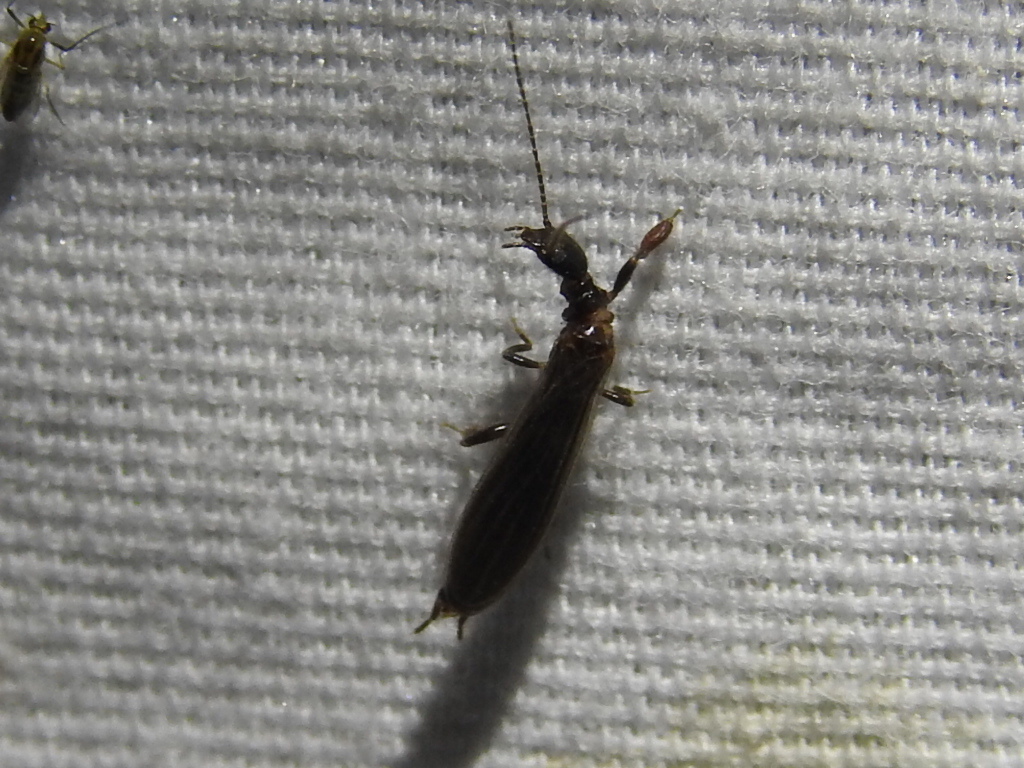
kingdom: Animalia
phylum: Arthropoda
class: Insecta
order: Embioptera
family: Oligotomidae
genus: Oligotoma
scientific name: Oligotoma nigra
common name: Black webspinner
